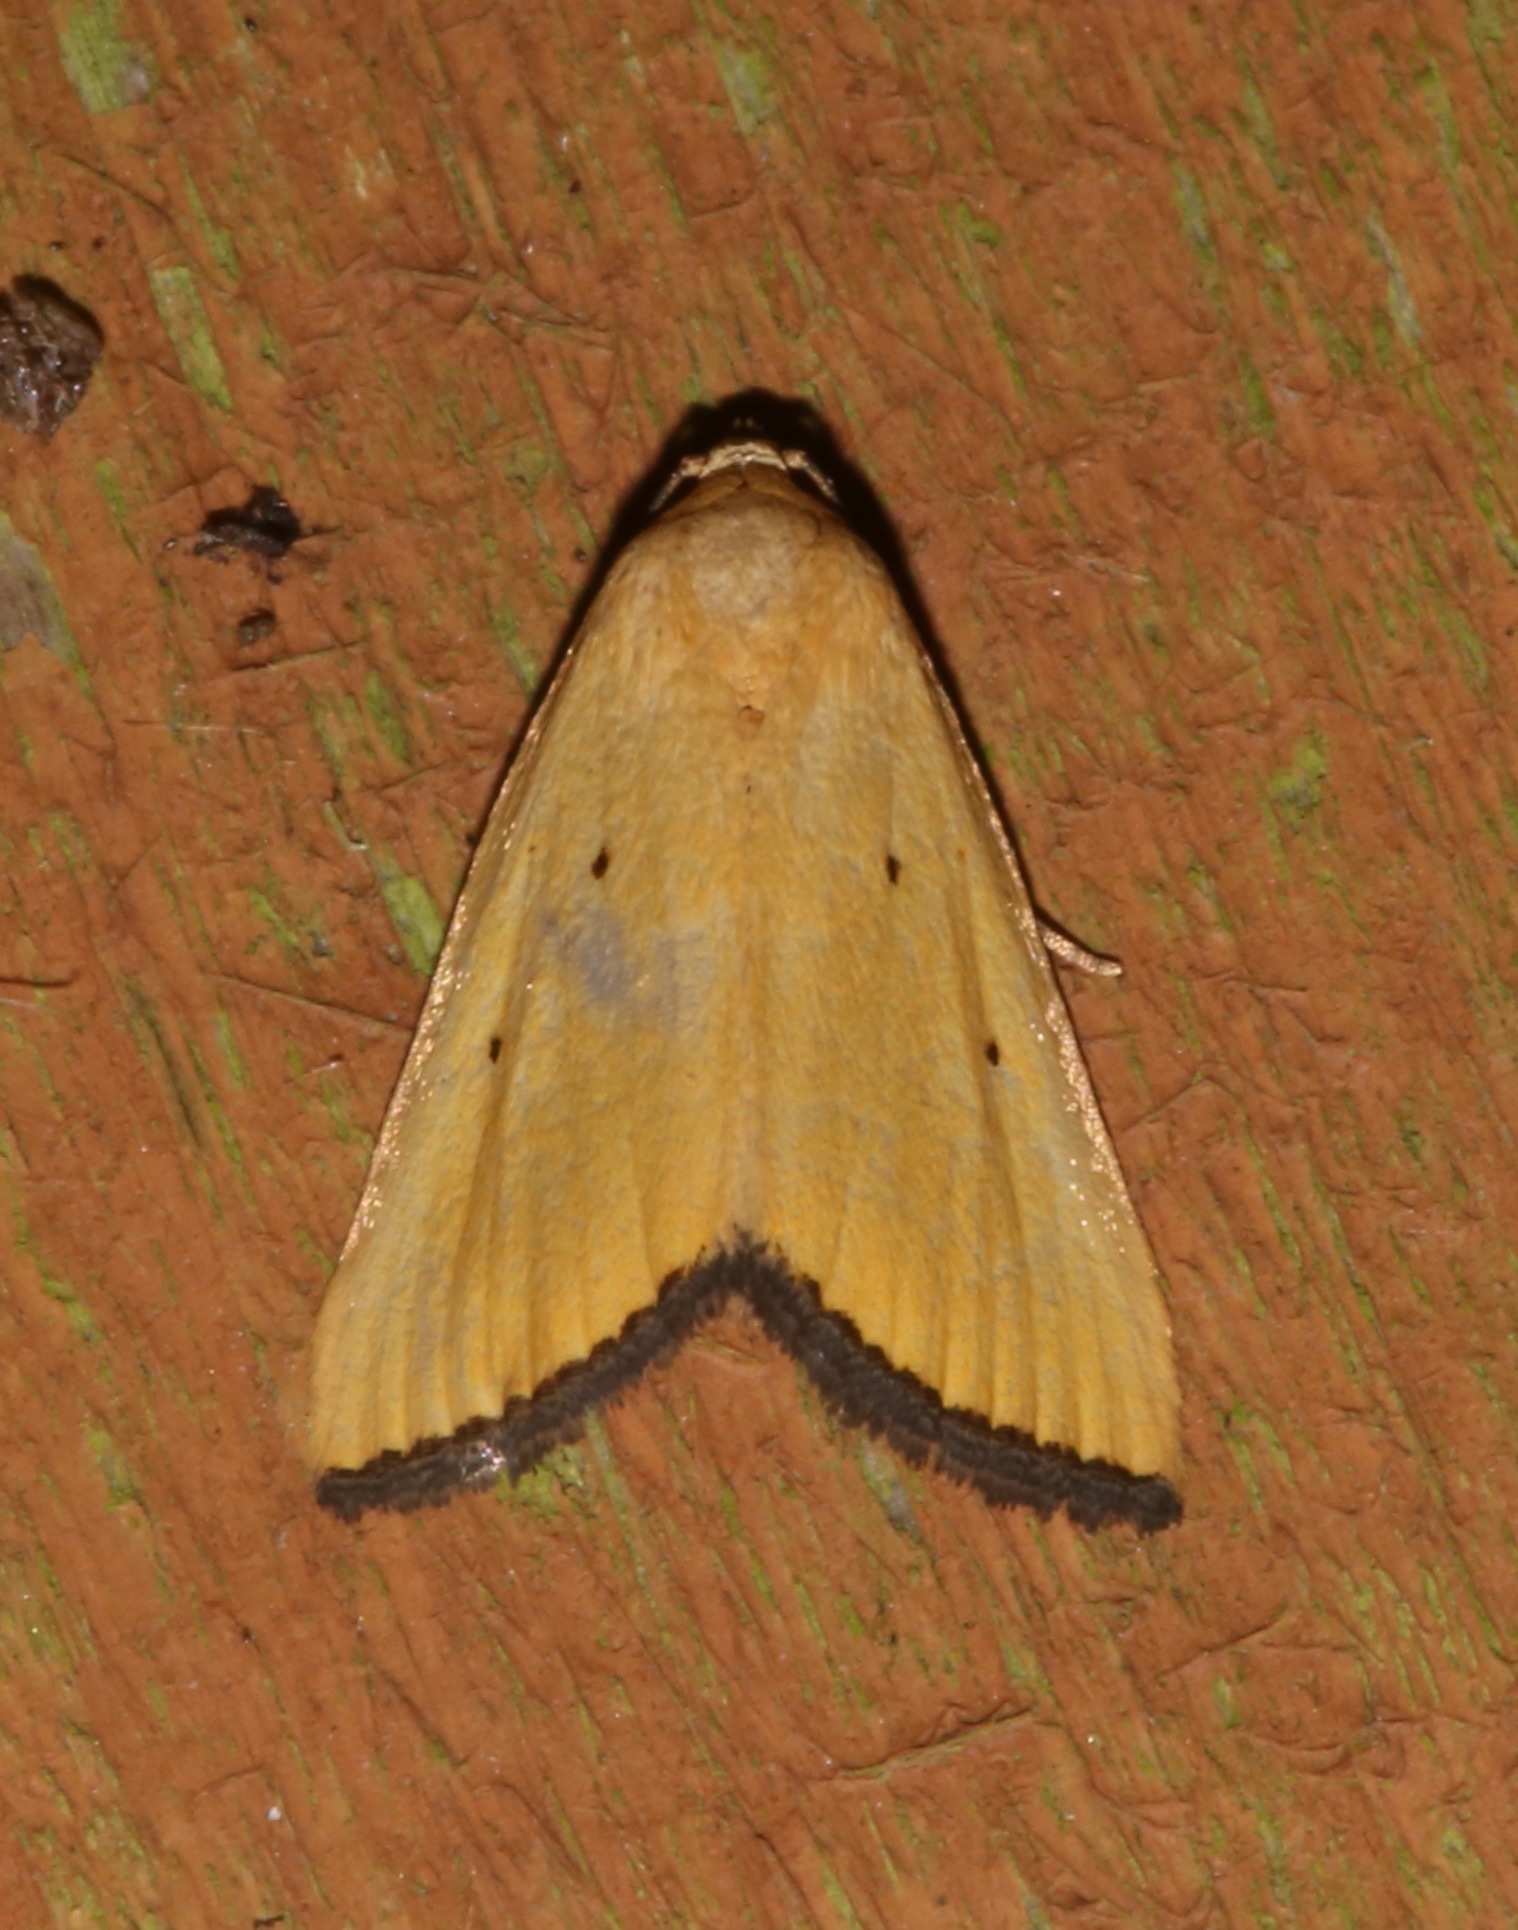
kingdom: Animalia
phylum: Arthropoda
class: Insecta
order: Lepidoptera
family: Noctuidae
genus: Marimatha
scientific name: Marimatha nigrofimbria
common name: Black-bordered lemon moth
